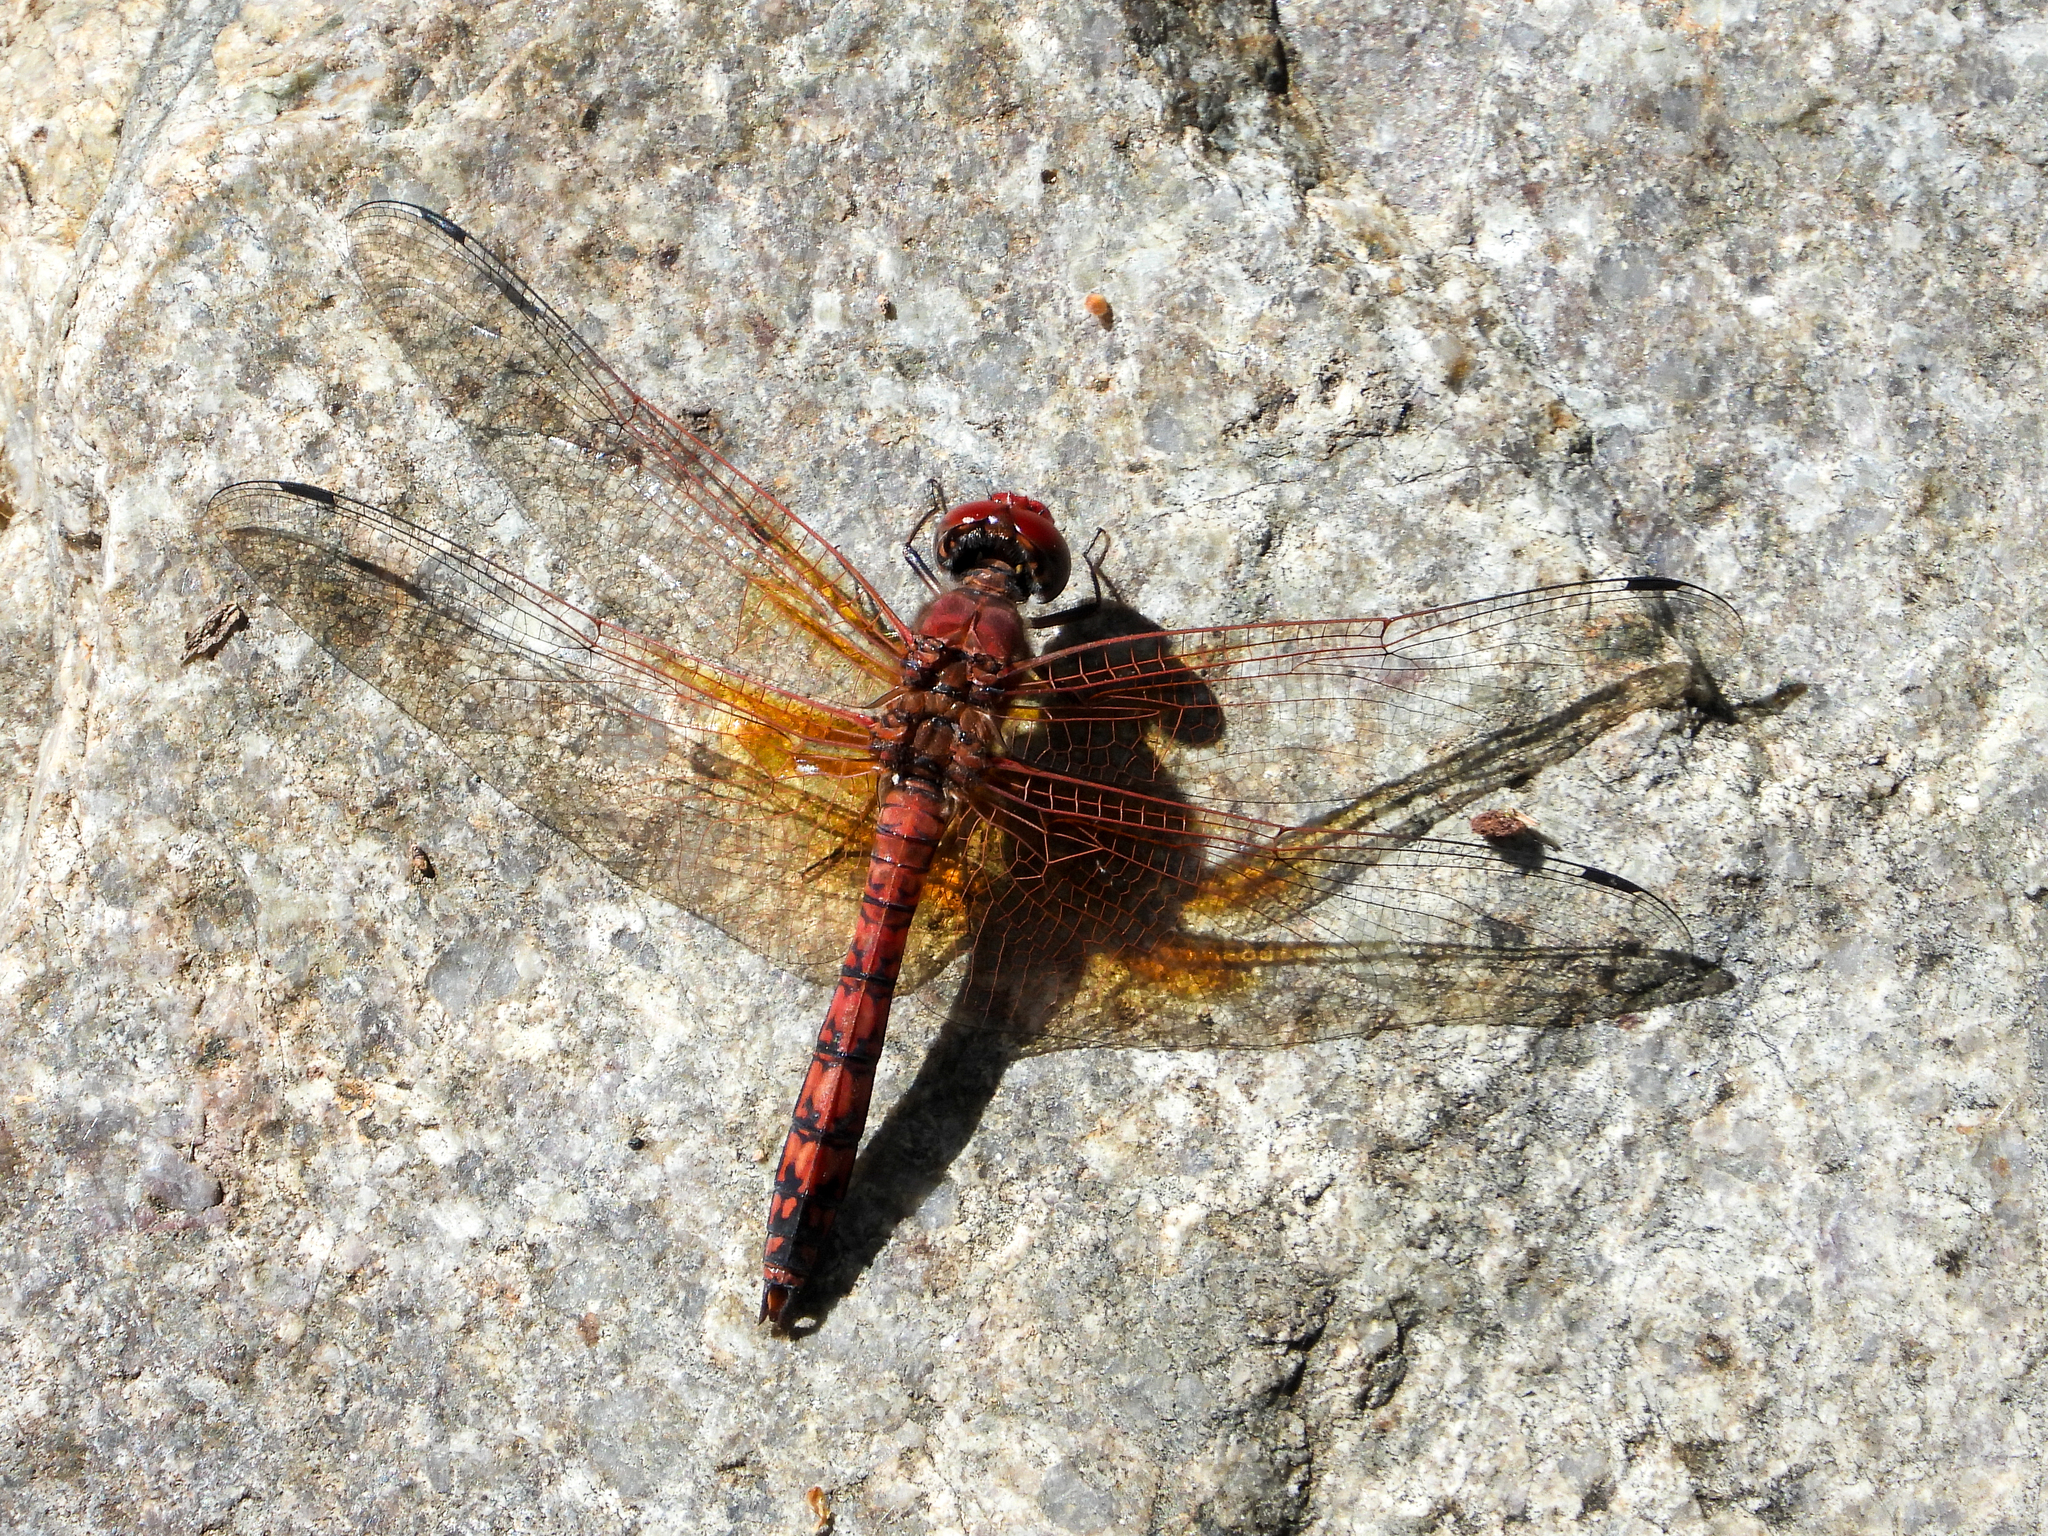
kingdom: Animalia
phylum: Arthropoda
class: Insecta
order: Odonata
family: Libellulidae
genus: Paltothemis
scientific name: Paltothemis lineatipes
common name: Red rock skimmer
